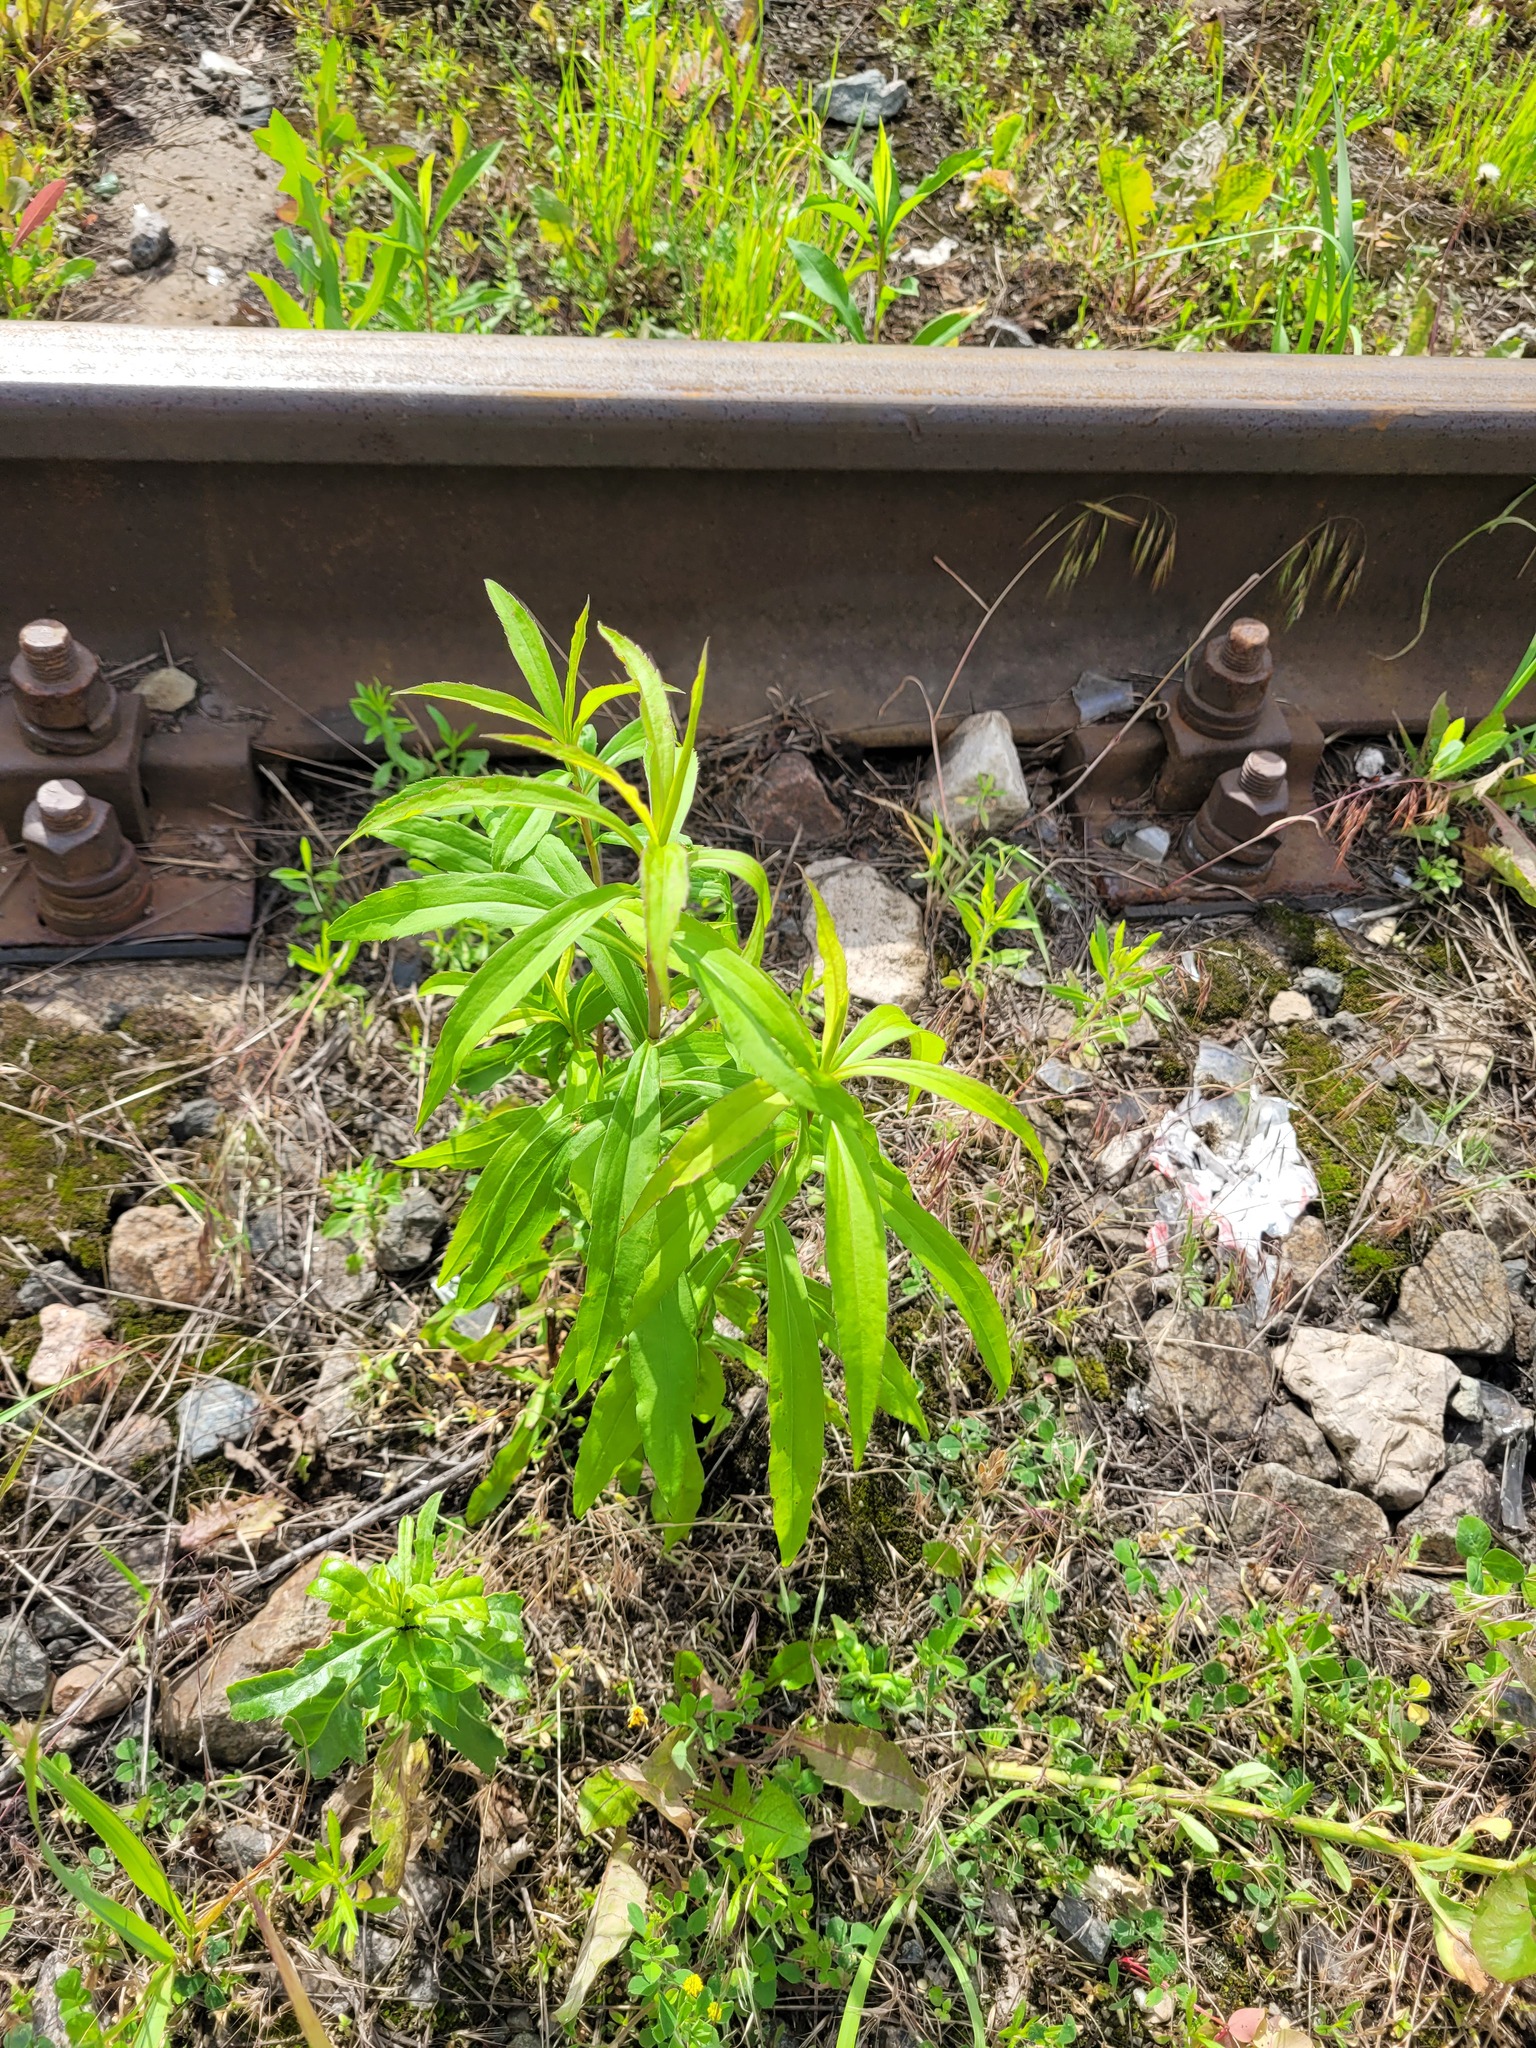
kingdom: Plantae
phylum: Tracheophyta
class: Magnoliopsida
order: Asterales
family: Asteraceae
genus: Solidago
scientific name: Solidago gigantea
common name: Giant goldenrod
